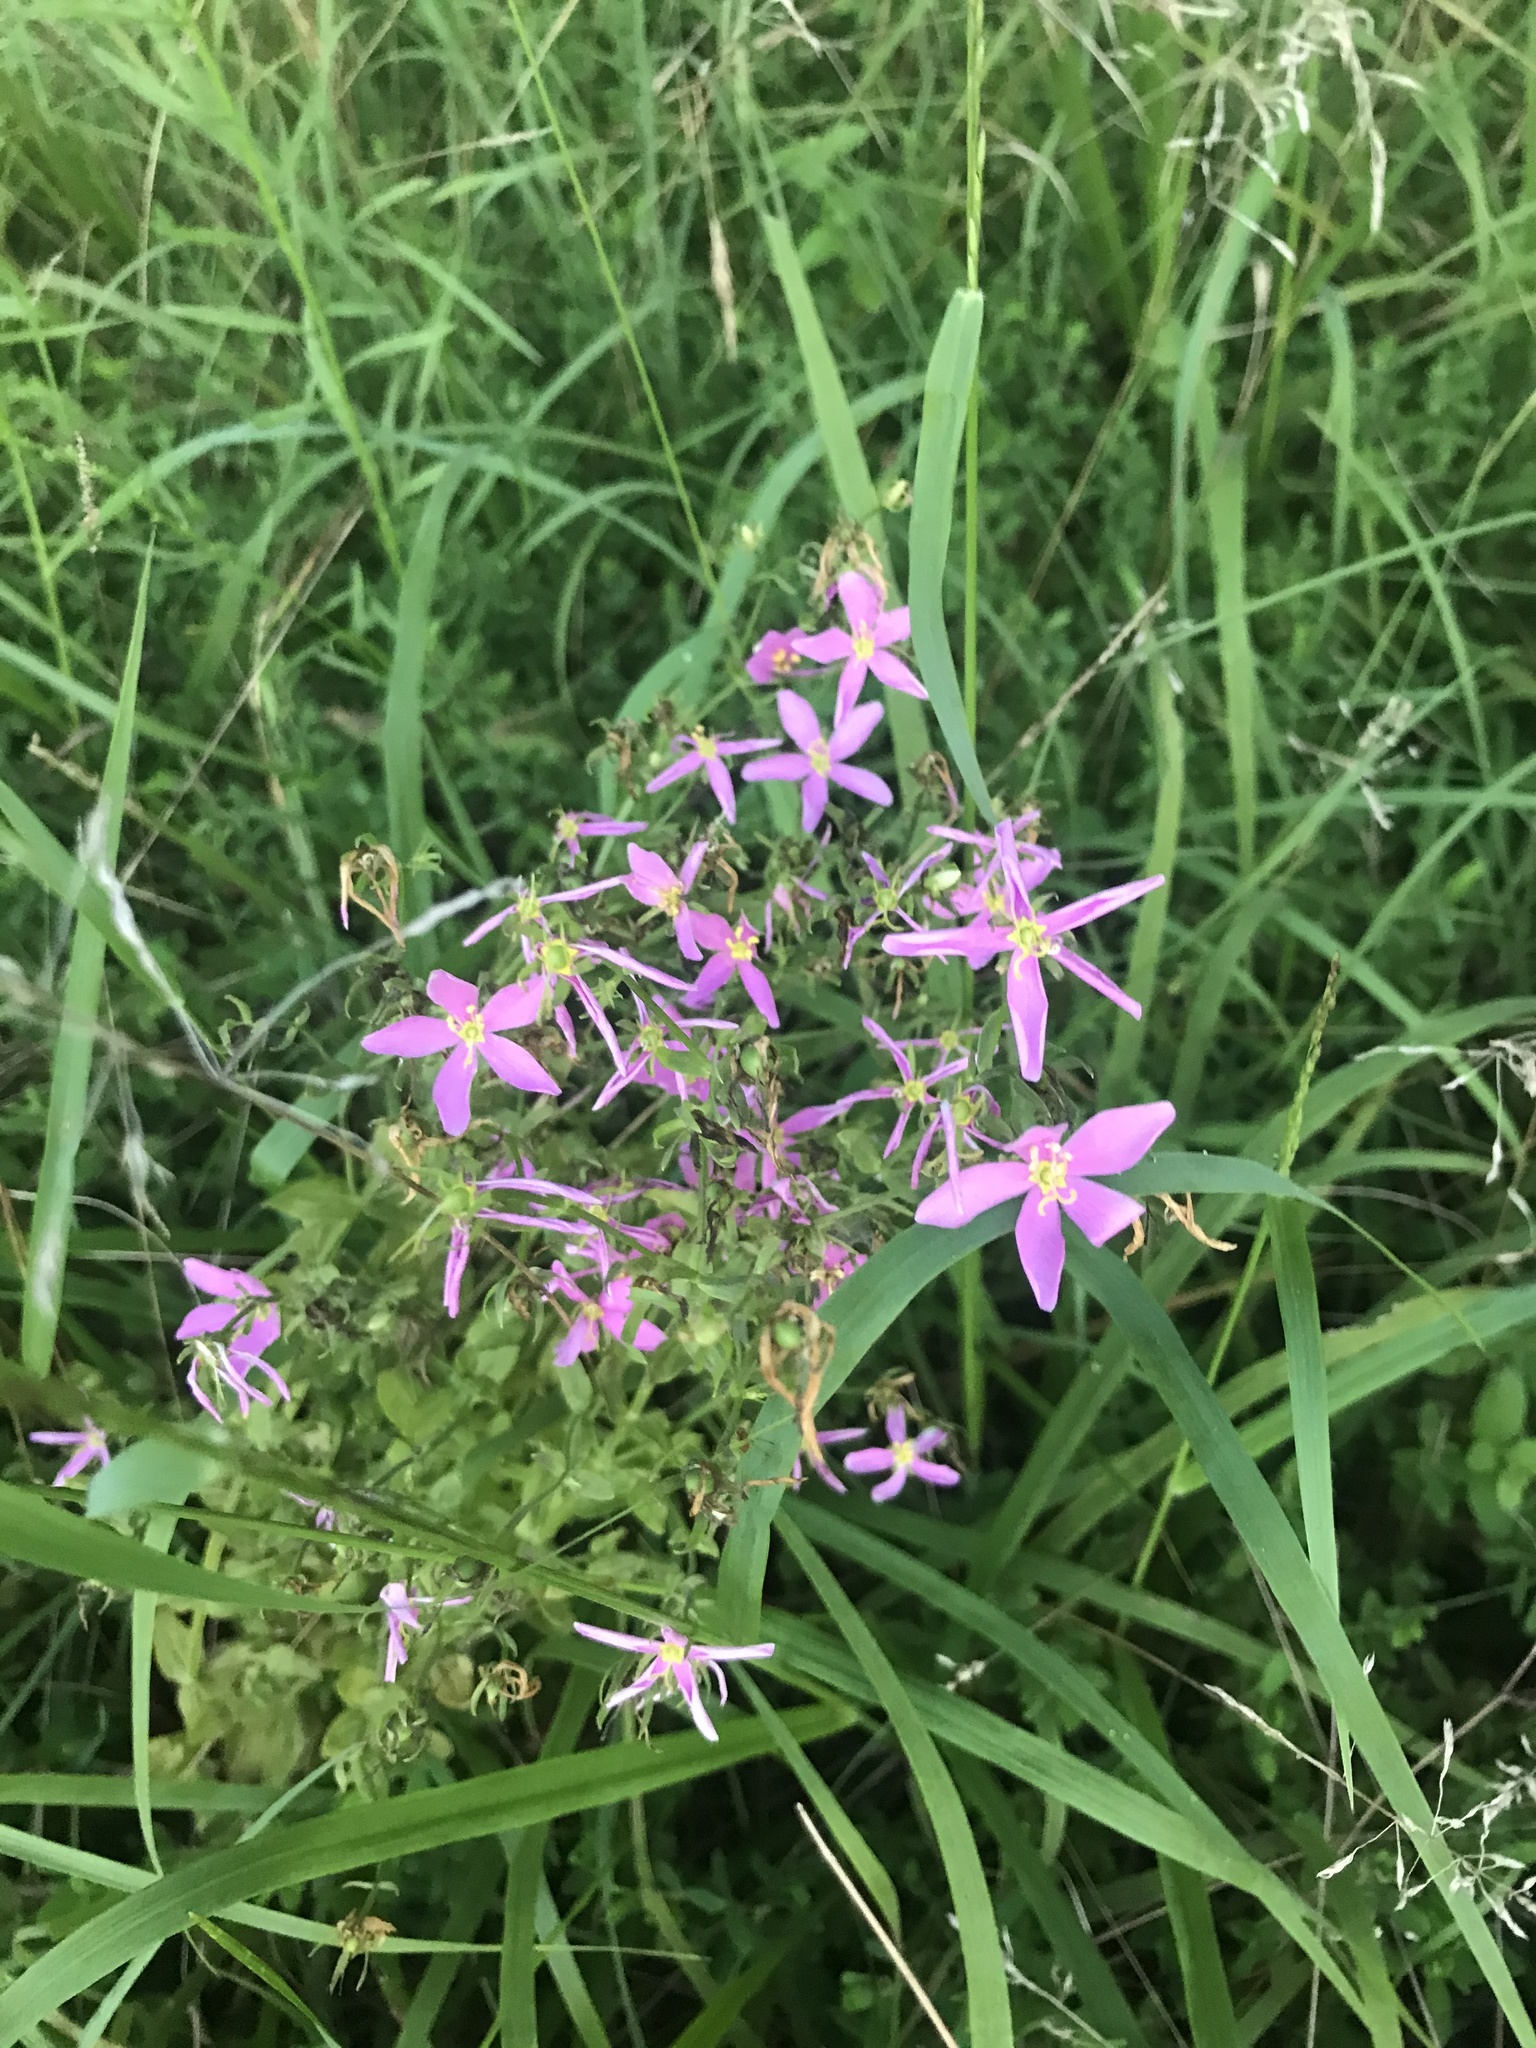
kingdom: Plantae
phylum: Tracheophyta
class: Magnoliopsida
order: Gentianales
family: Gentianaceae
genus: Sabatia
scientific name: Sabatia angularis
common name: Rose-pink
